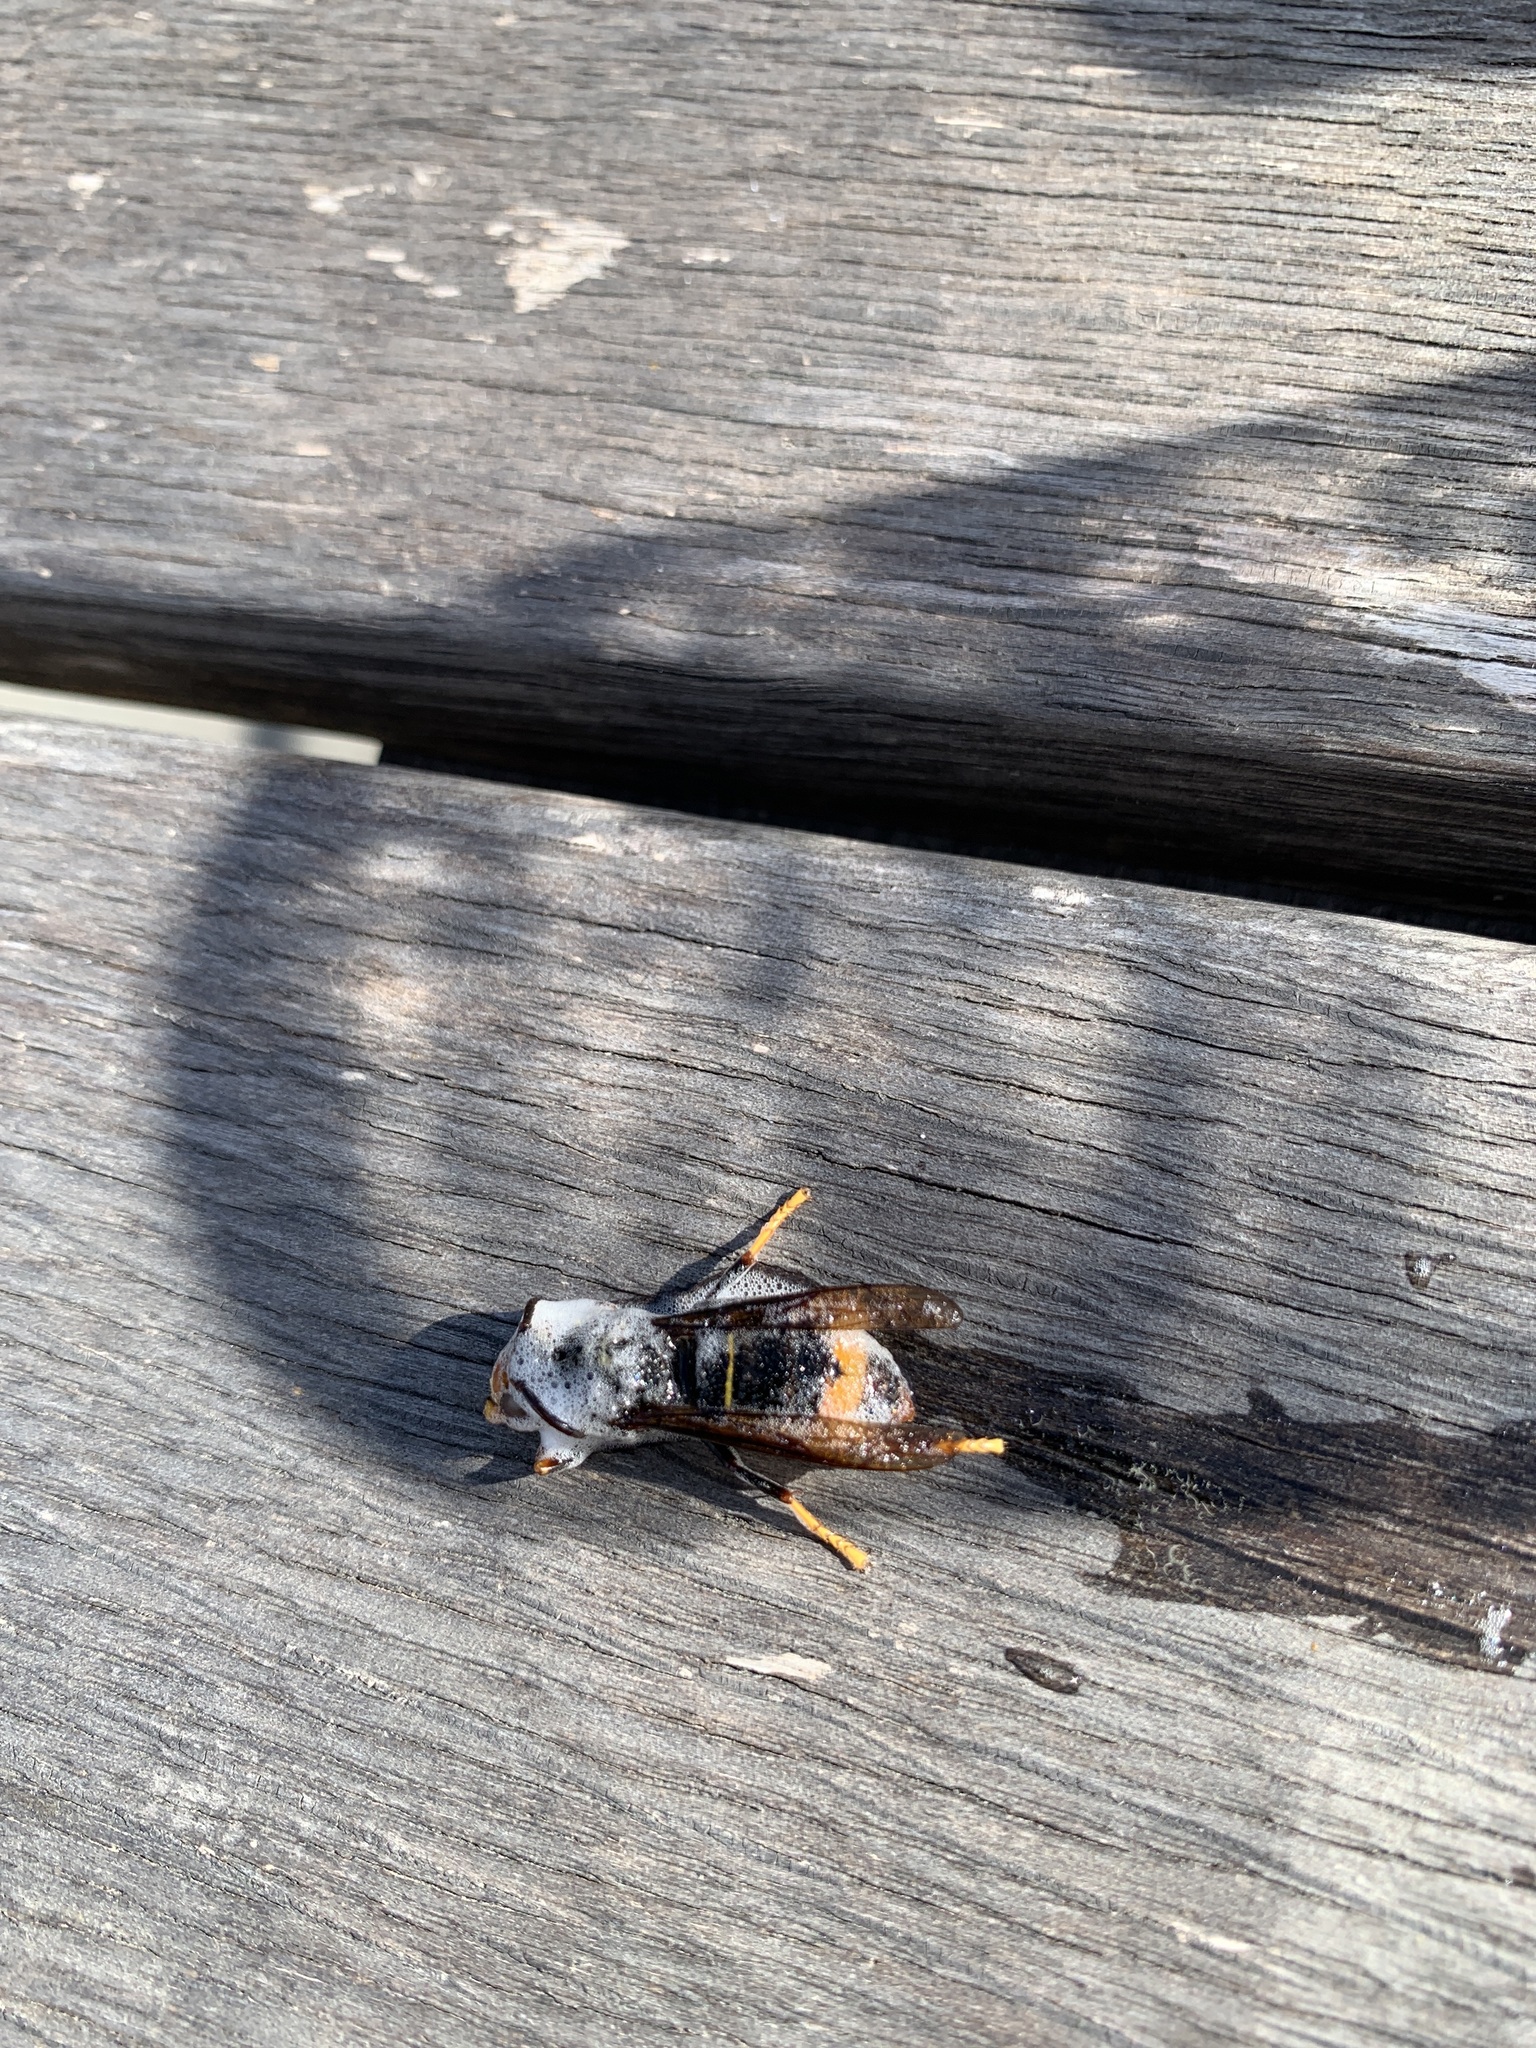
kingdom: Animalia
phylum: Arthropoda
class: Insecta
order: Hymenoptera
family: Vespidae
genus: Vespa
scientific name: Vespa velutina
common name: Asian hornet
